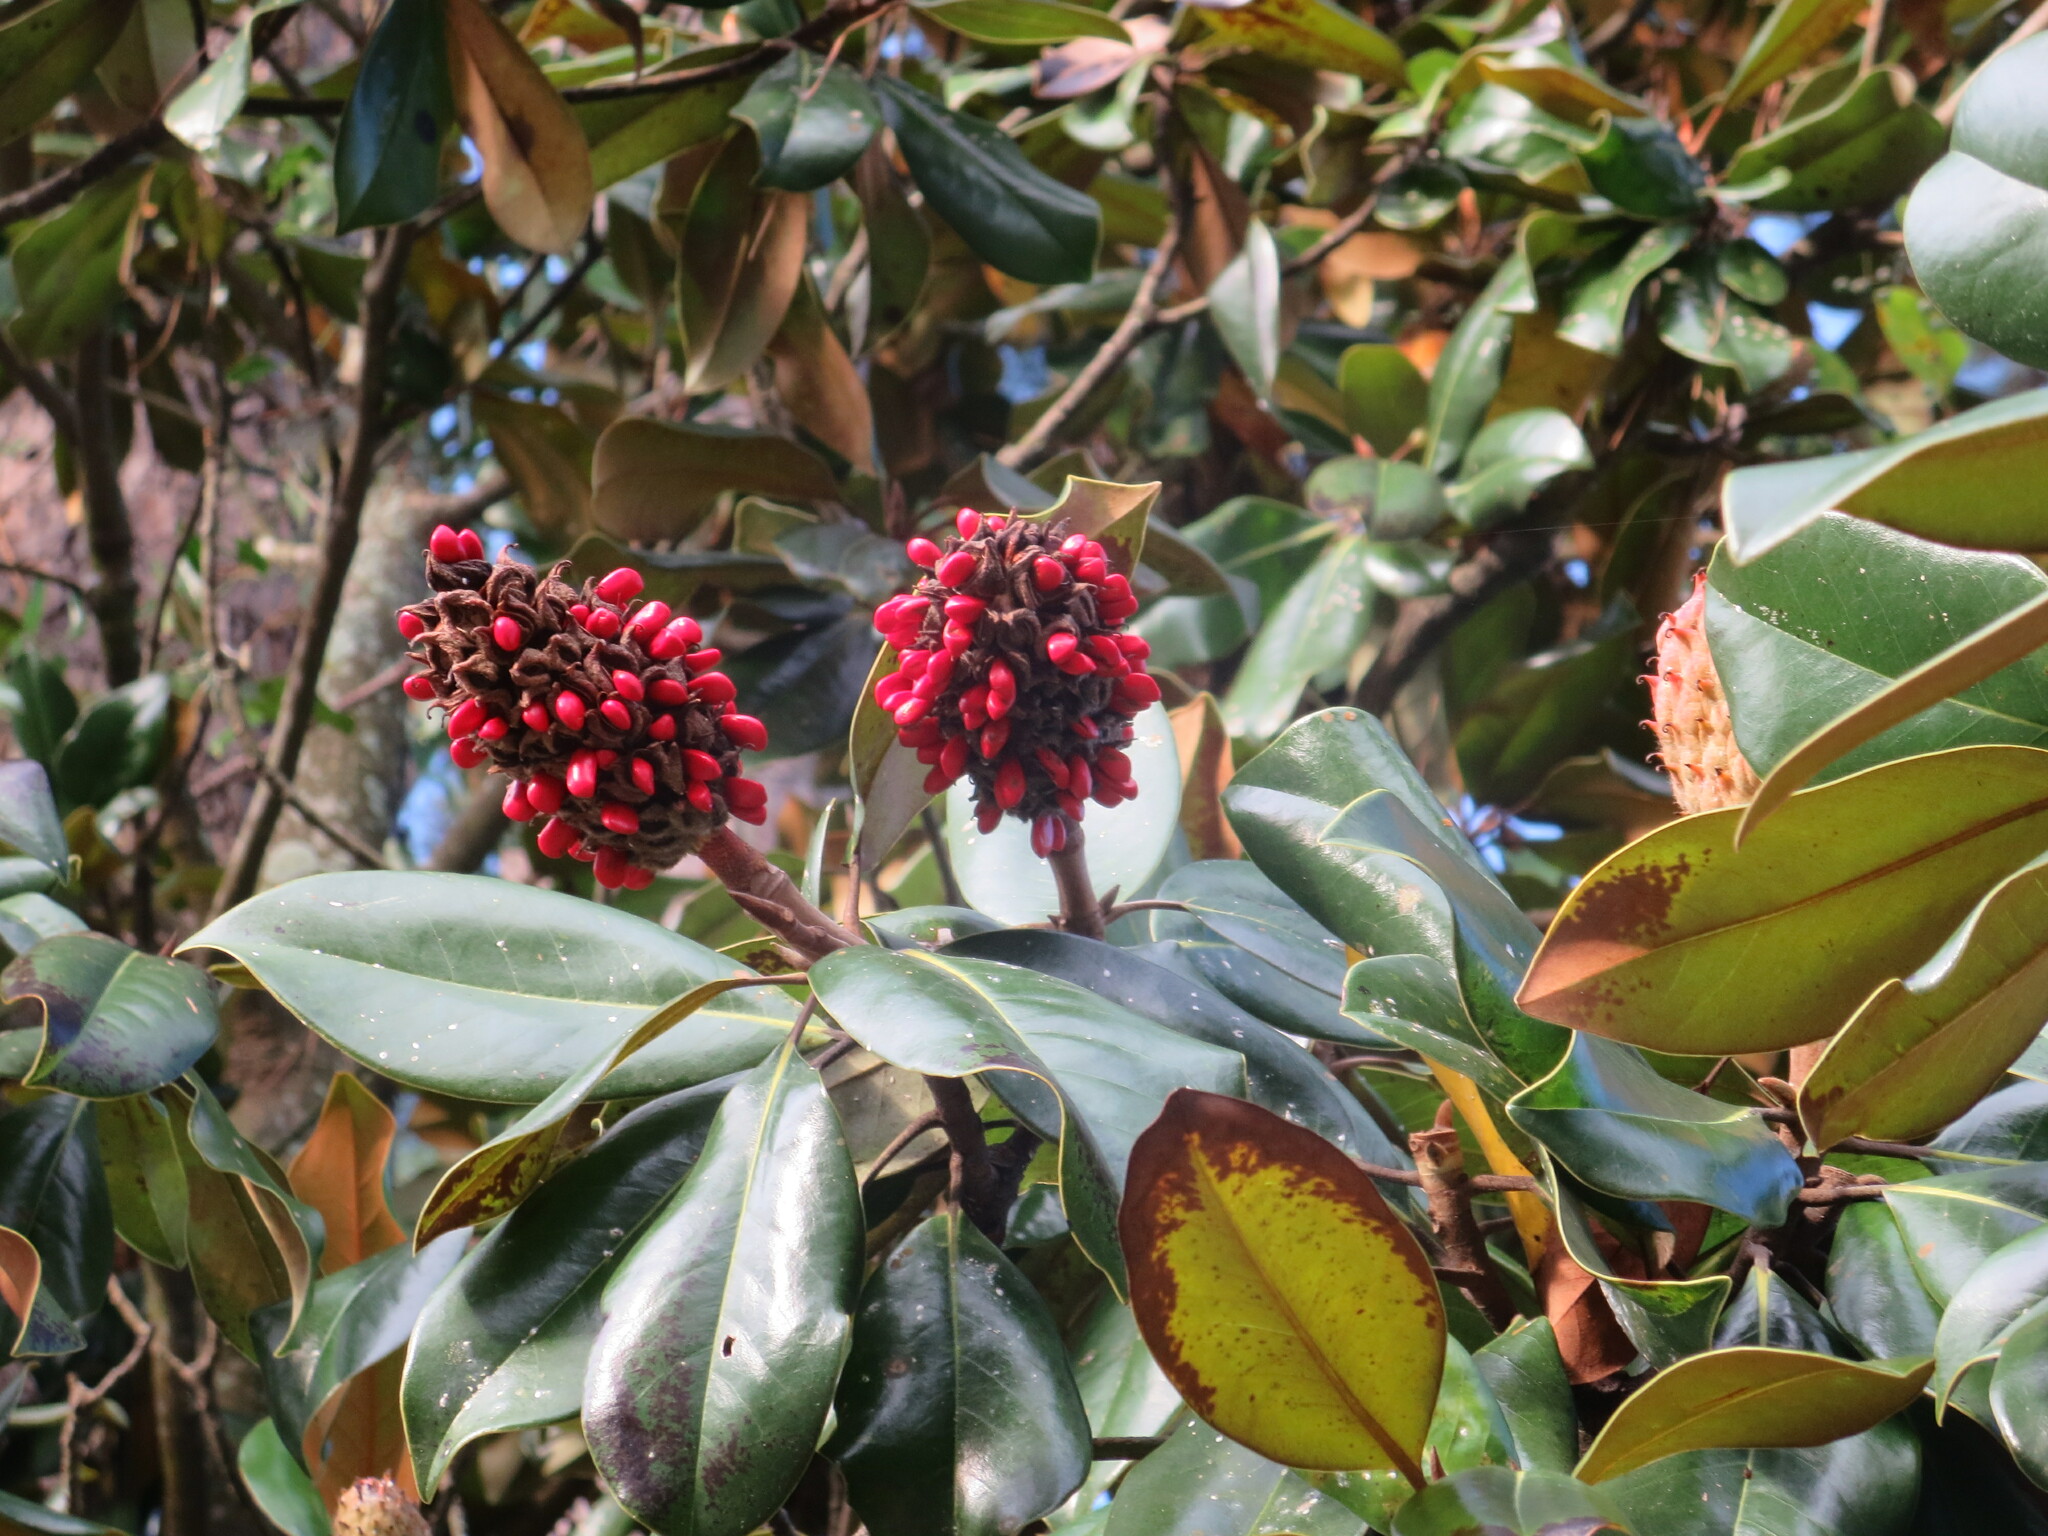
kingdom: Plantae
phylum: Tracheophyta
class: Magnoliopsida
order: Magnoliales
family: Magnoliaceae
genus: Magnolia
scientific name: Magnolia grandiflora
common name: Southern magnolia
